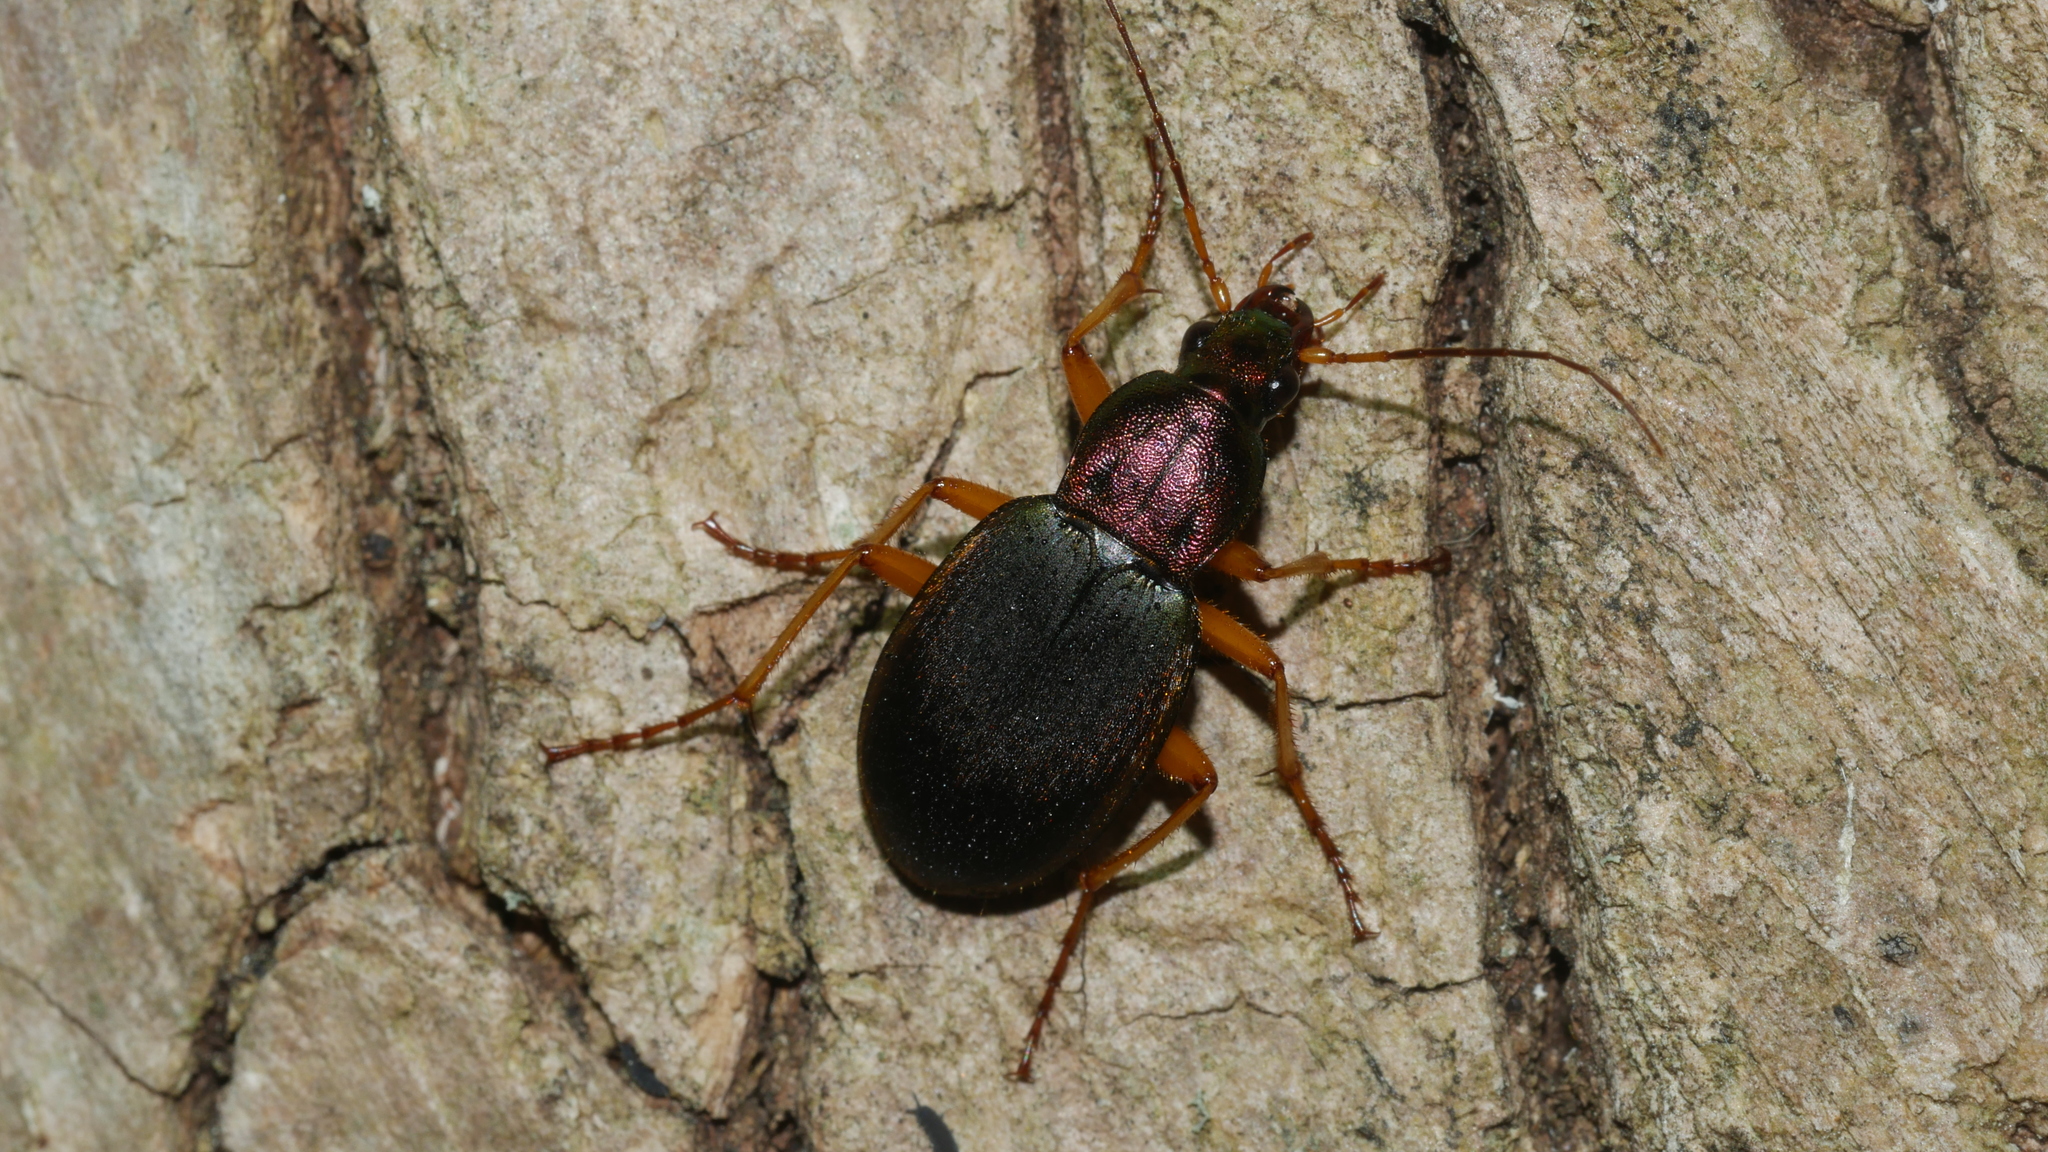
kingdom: Animalia
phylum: Arthropoda
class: Insecta
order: Coleoptera
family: Carabidae
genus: Chlaenius
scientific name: Chlaenius aestivus
